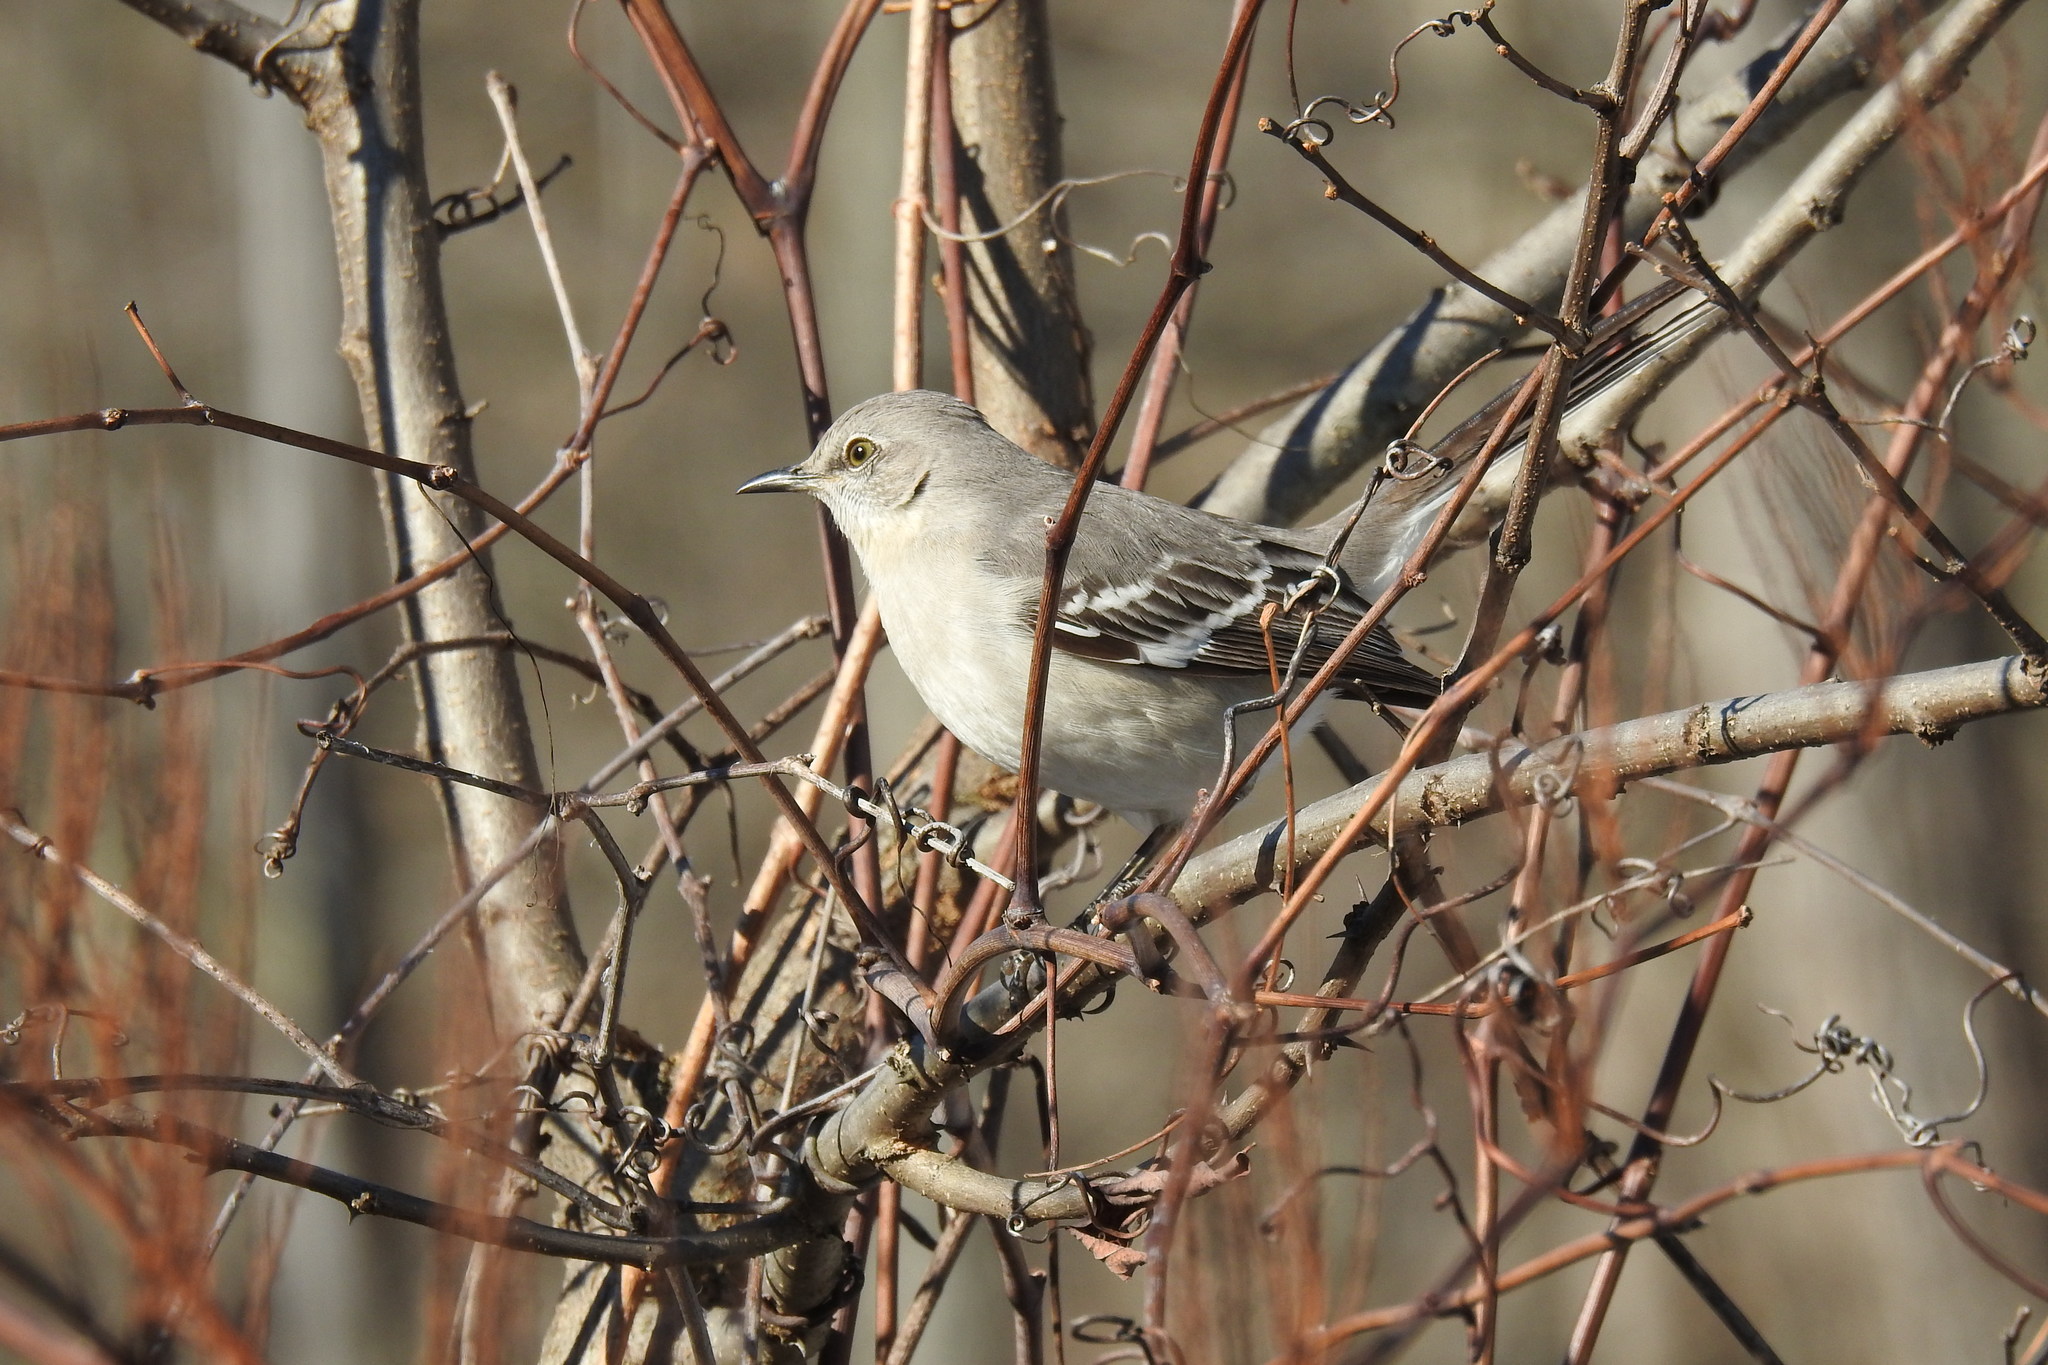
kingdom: Animalia
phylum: Chordata
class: Aves
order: Passeriformes
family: Mimidae
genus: Mimus
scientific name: Mimus polyglottos
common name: Northern mockingbird
